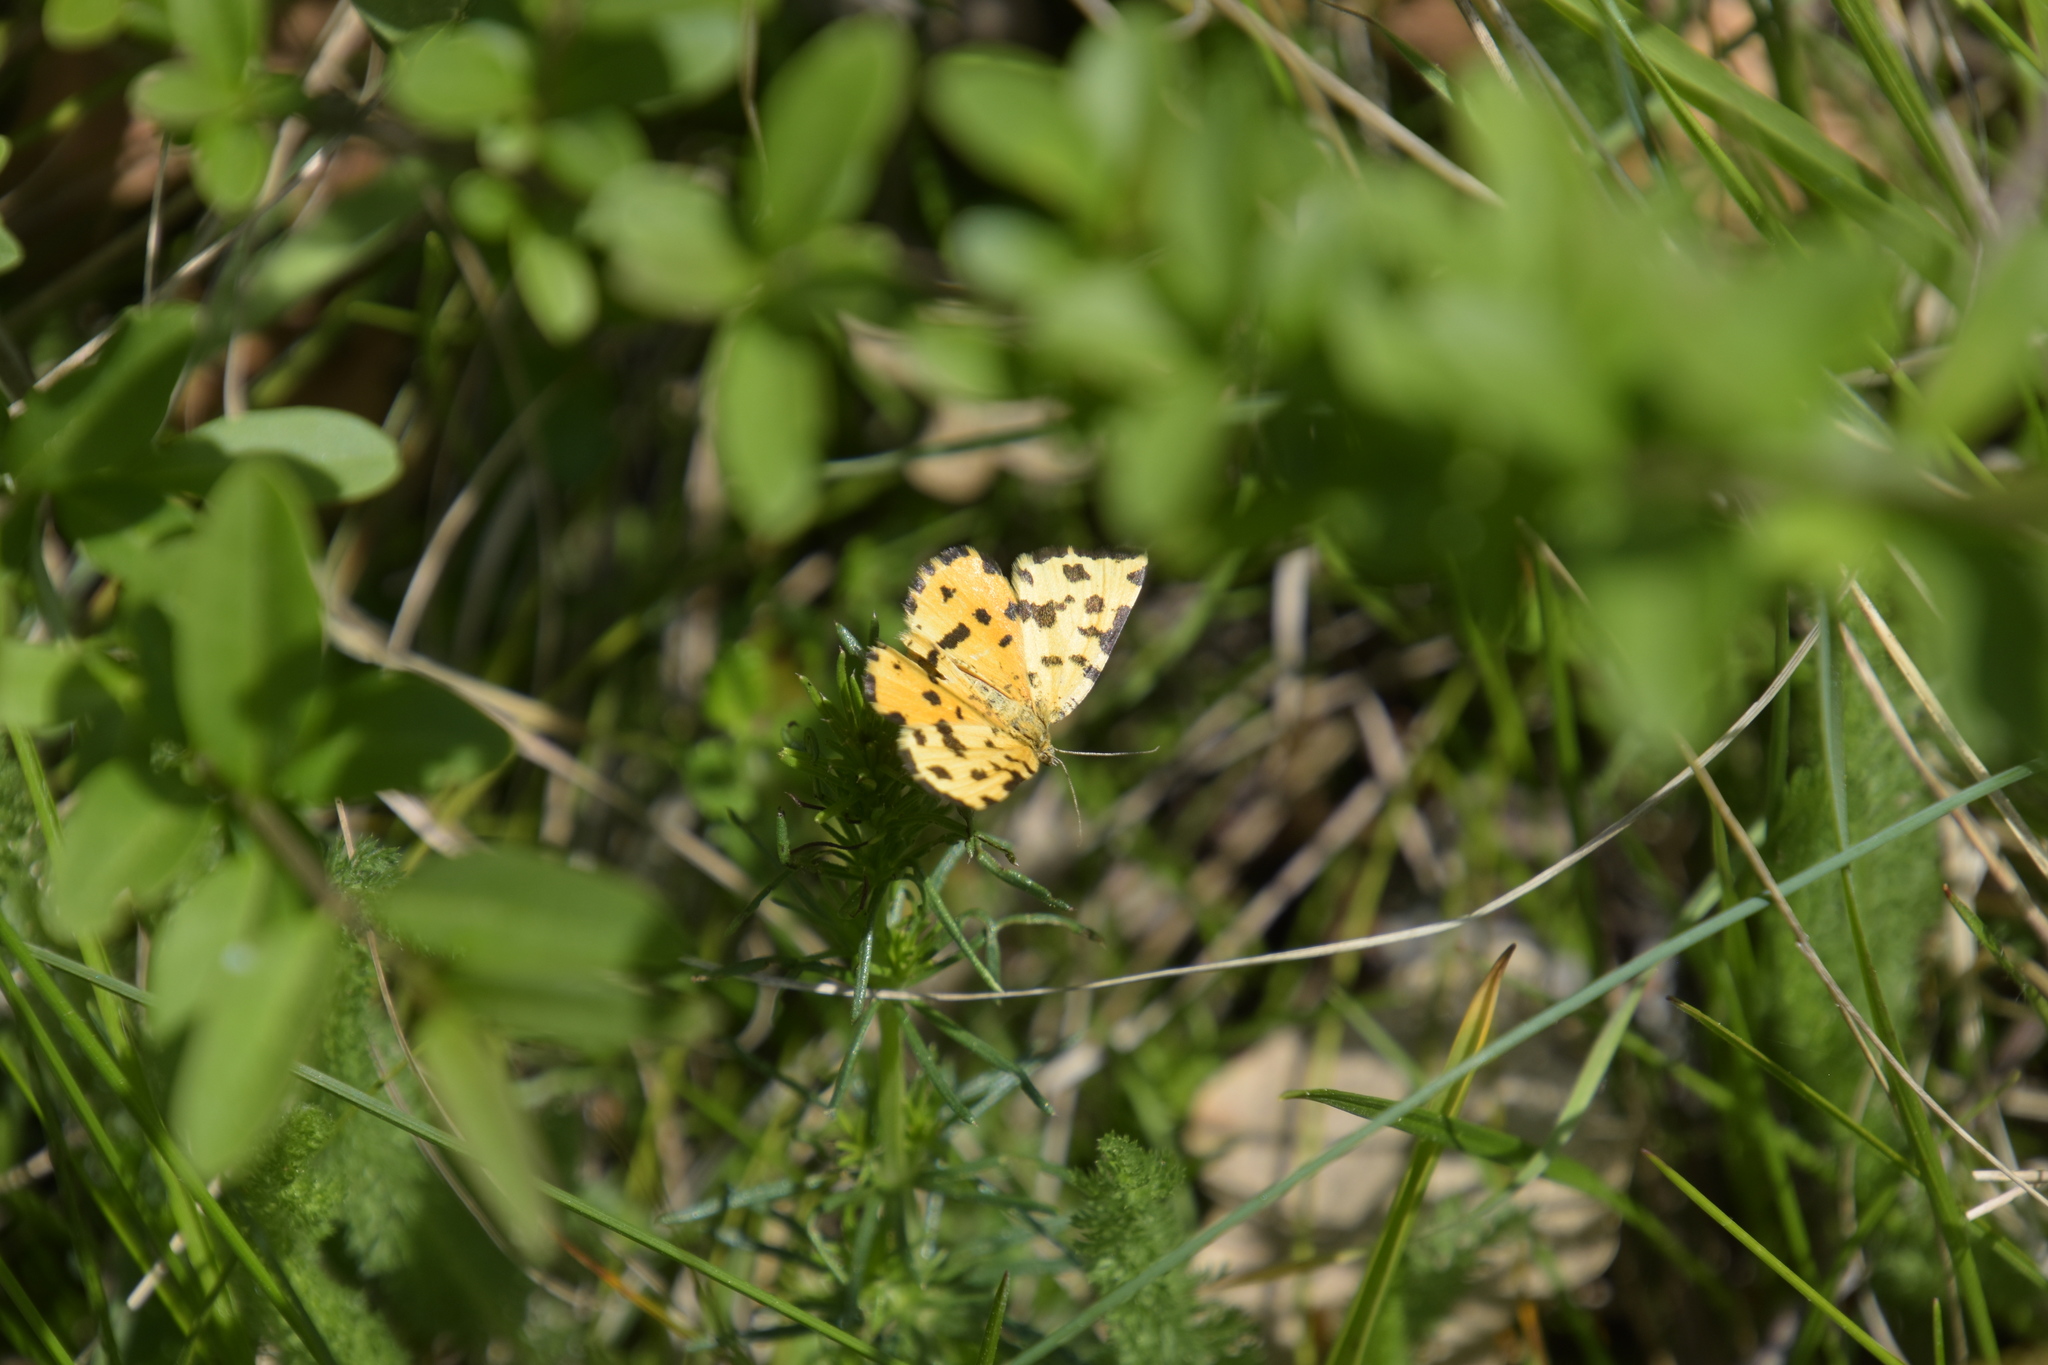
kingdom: Animalia
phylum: Arthropoda
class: Insecta
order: Lepidoptera
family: Geometridae
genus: Pseudopanthera
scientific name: Pseudopanthera macularia
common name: Speckled yellow
